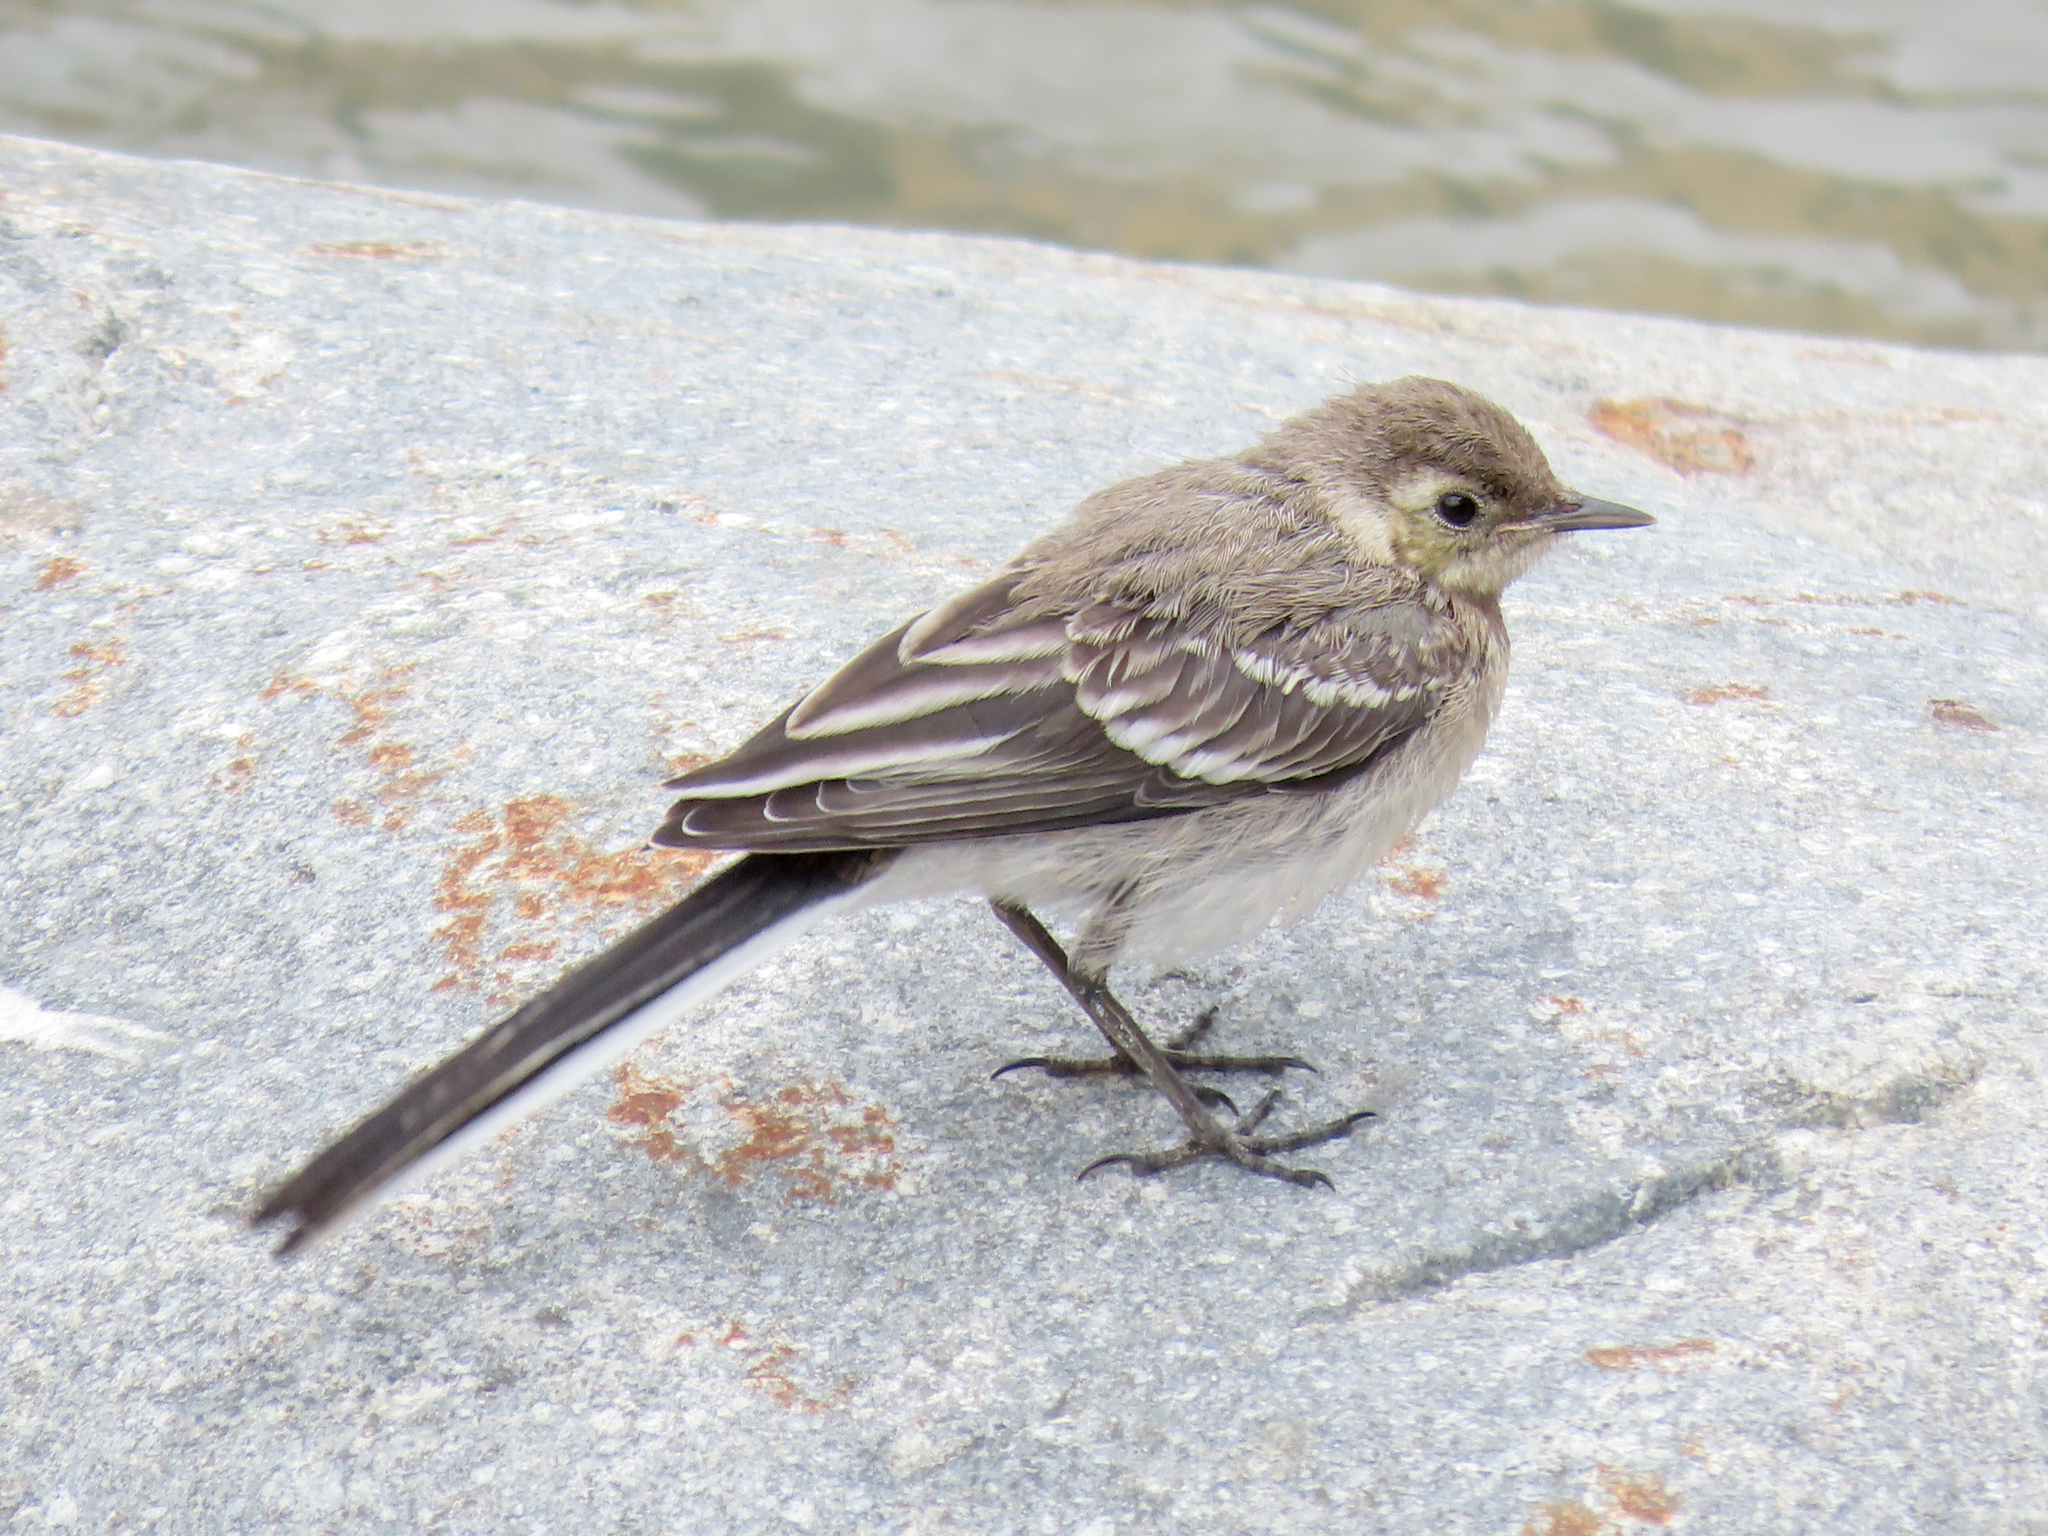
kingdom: Animalia
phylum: Chordata
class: Aves
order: Passeriformes
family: Motacillidae
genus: Motacilla
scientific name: Motacilla alba
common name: White wagtail
